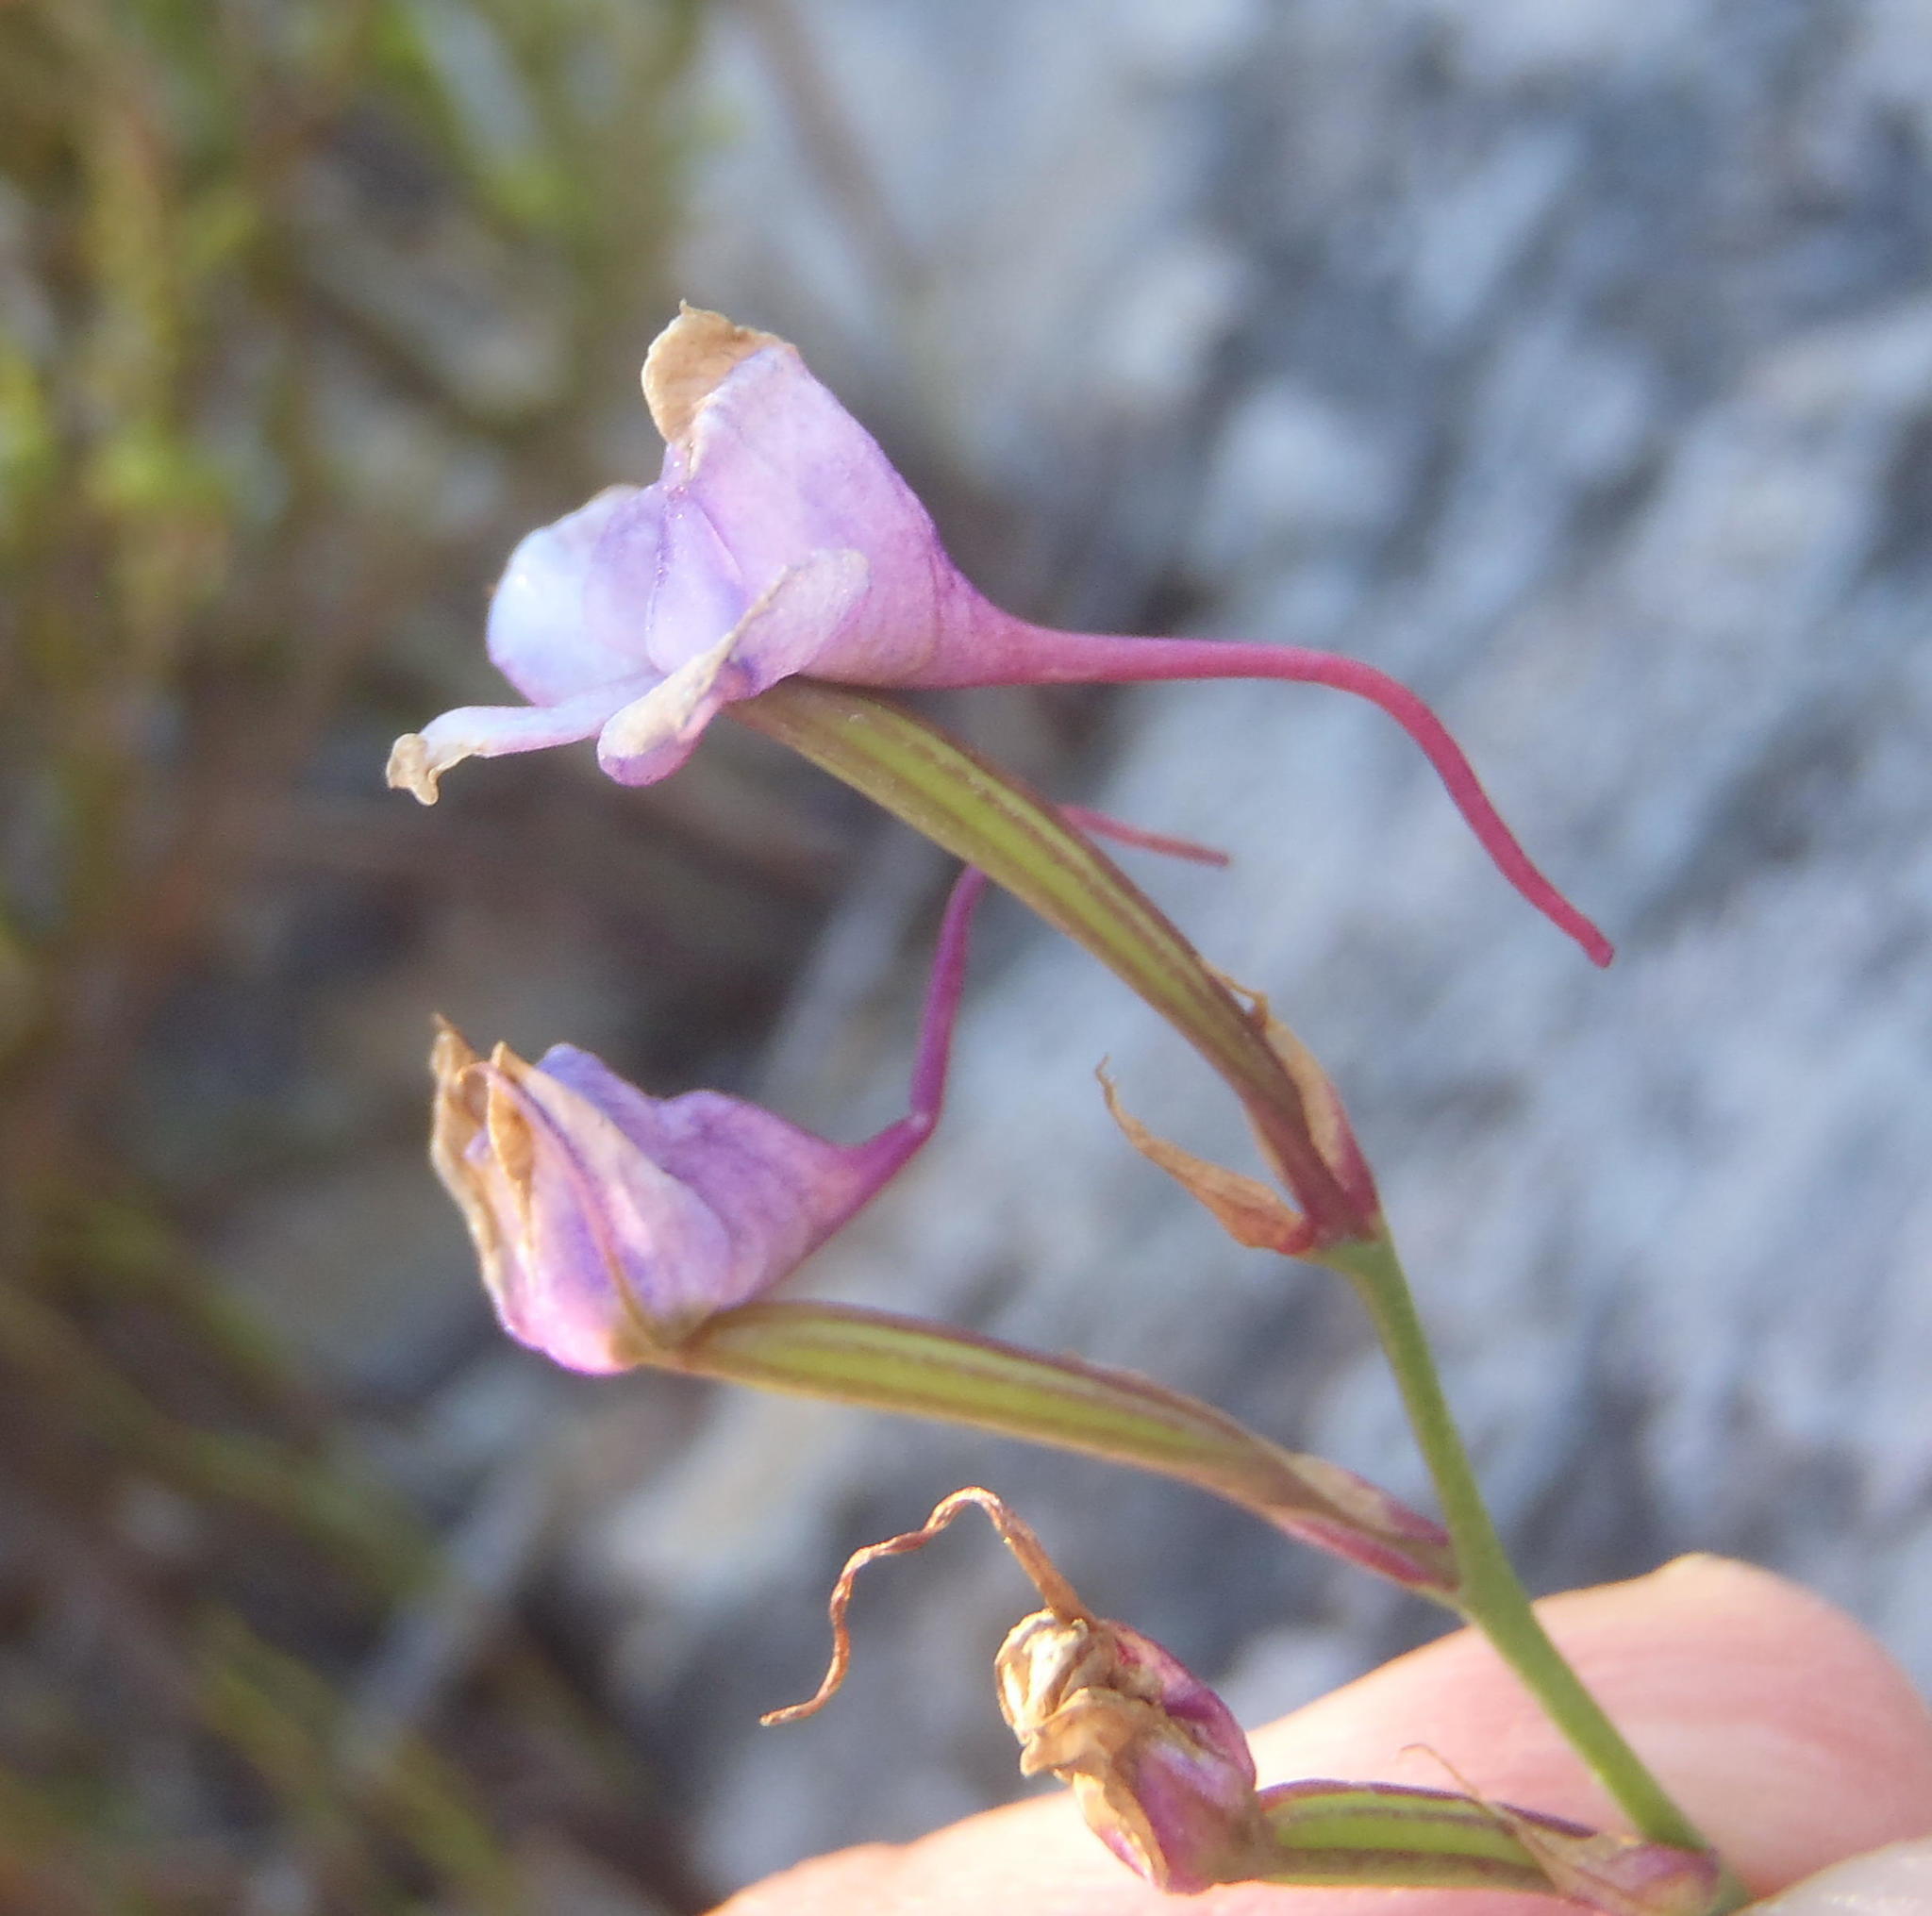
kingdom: Plantae
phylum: Tracheophyta
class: Liliopsida
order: Asparagales
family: Orchidaceae
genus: Disa
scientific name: Disa arida
